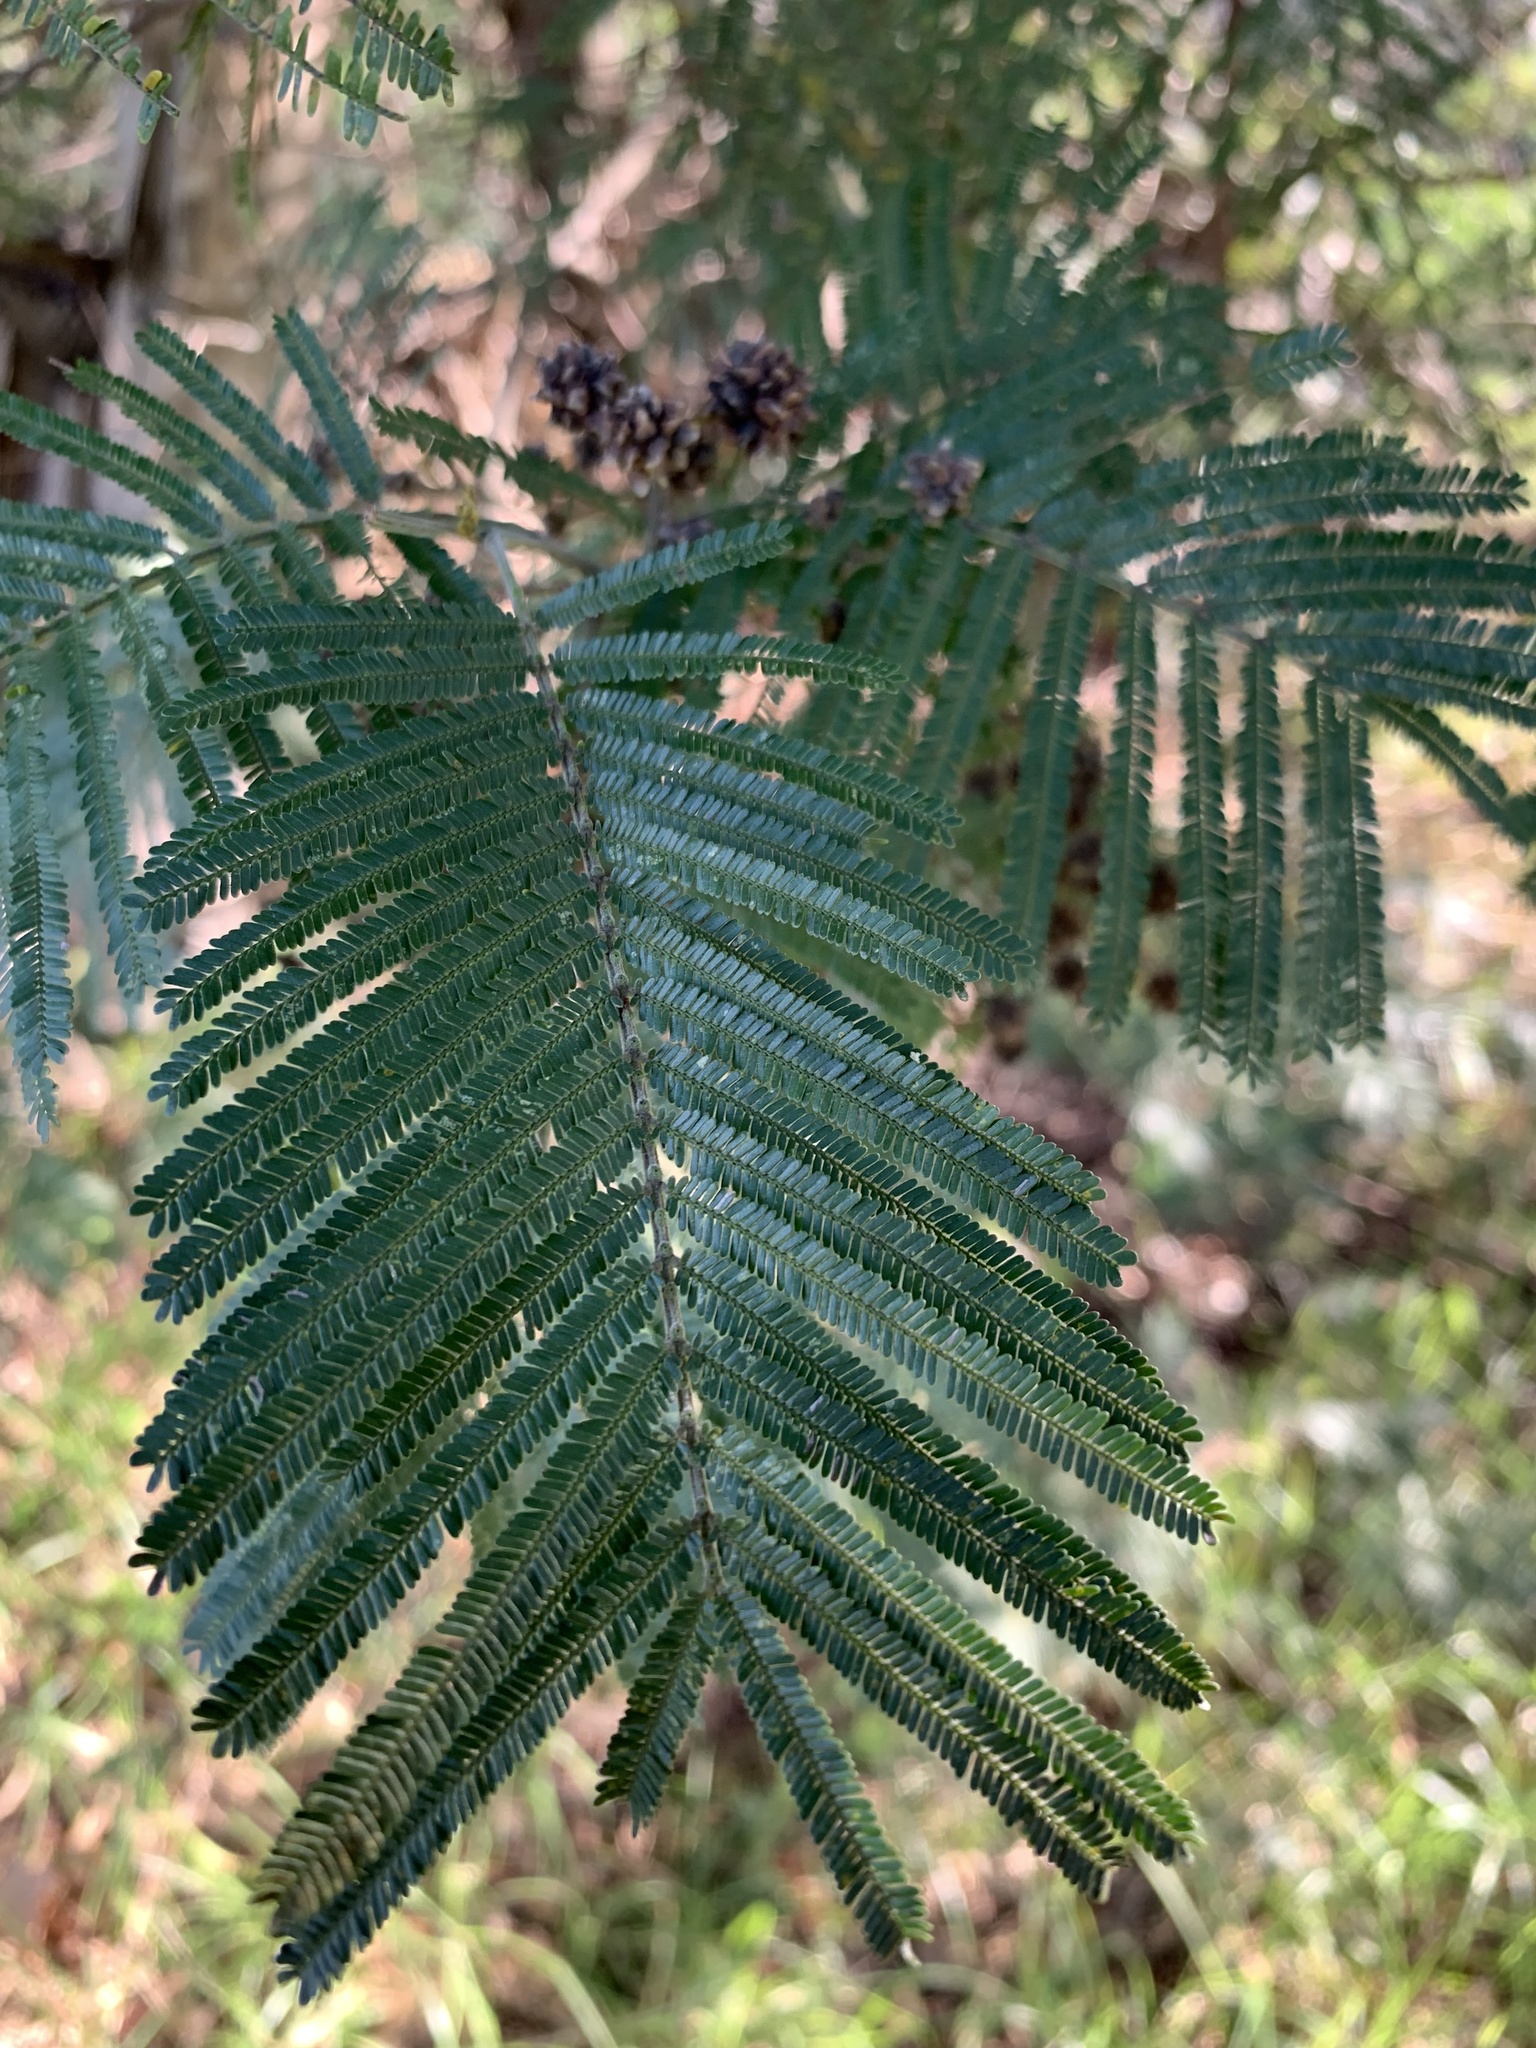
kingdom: Plantae
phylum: Tracheophyta
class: Magnoliopsida
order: Fabales
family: Fabaceae
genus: Acacia
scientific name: Acacia mearnsii
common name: Black wattle
